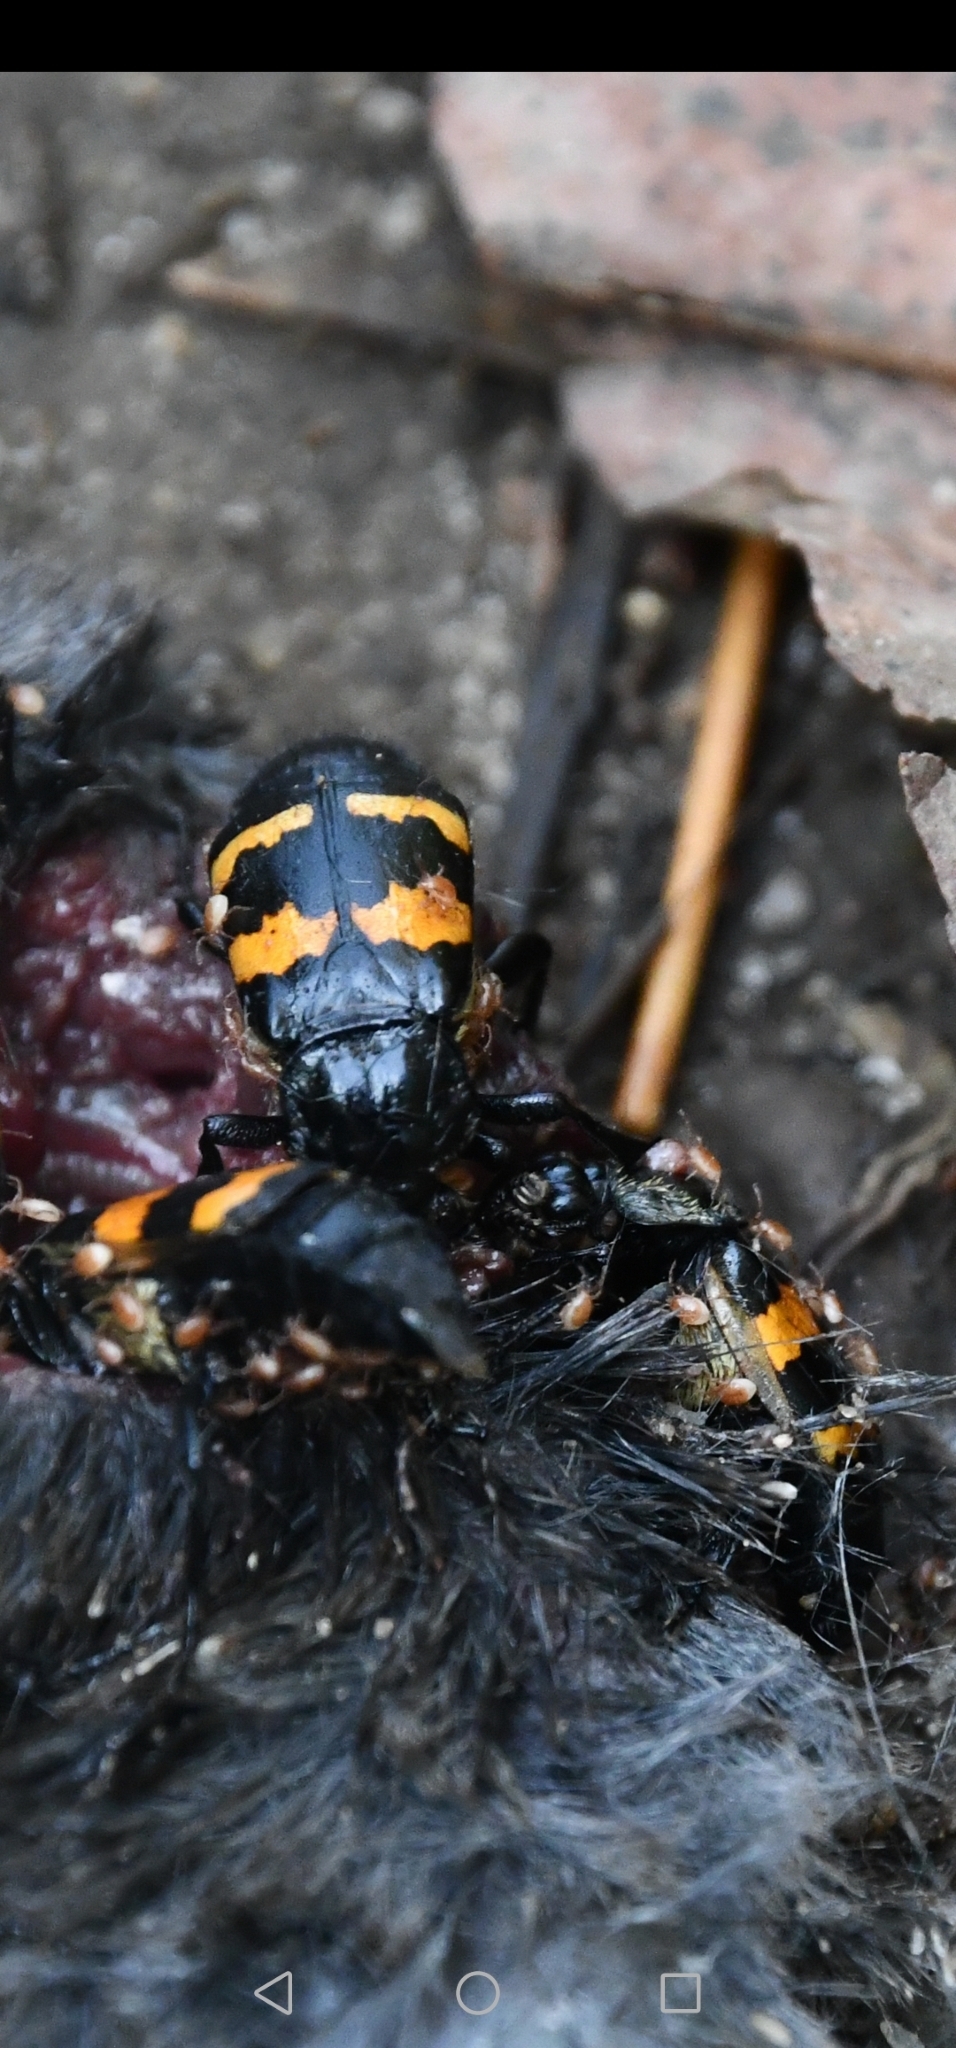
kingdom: Animalia
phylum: Arthropoda
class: Insecta
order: Coleoptera
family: Staphylinidae
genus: Nicrophorus
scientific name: Nicrophorus tomentosus
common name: Tomentose burying beetle
